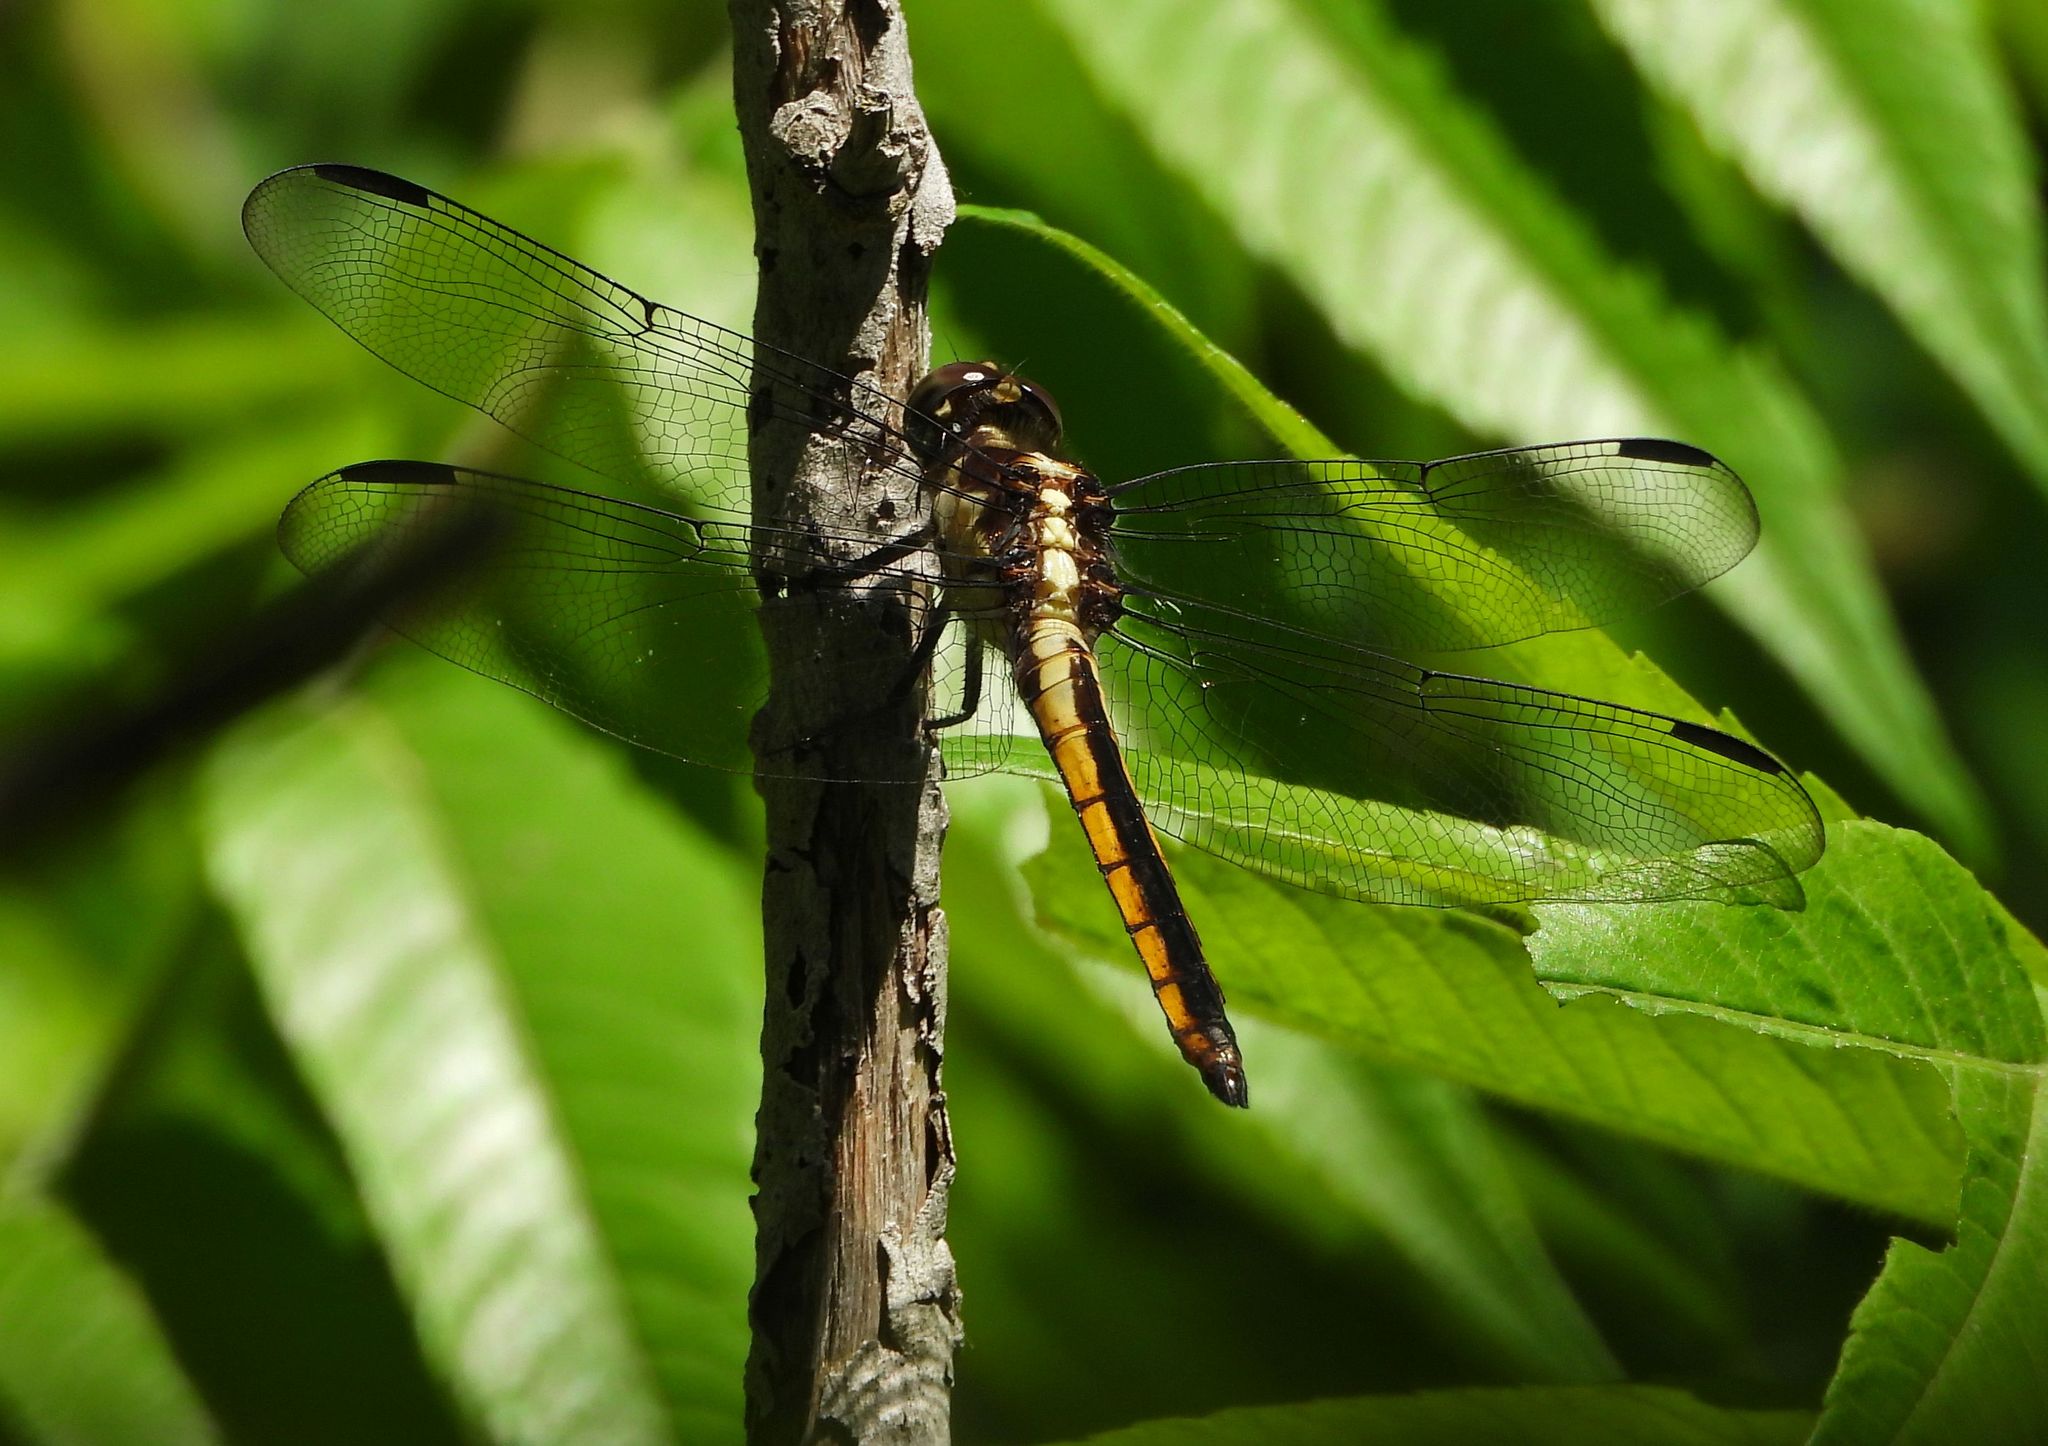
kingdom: Animalia
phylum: Arthropoda
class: Insecta
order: Odonata
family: Libellulidae
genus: Libellula
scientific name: Libellula incesta
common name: Slaty skimmer
